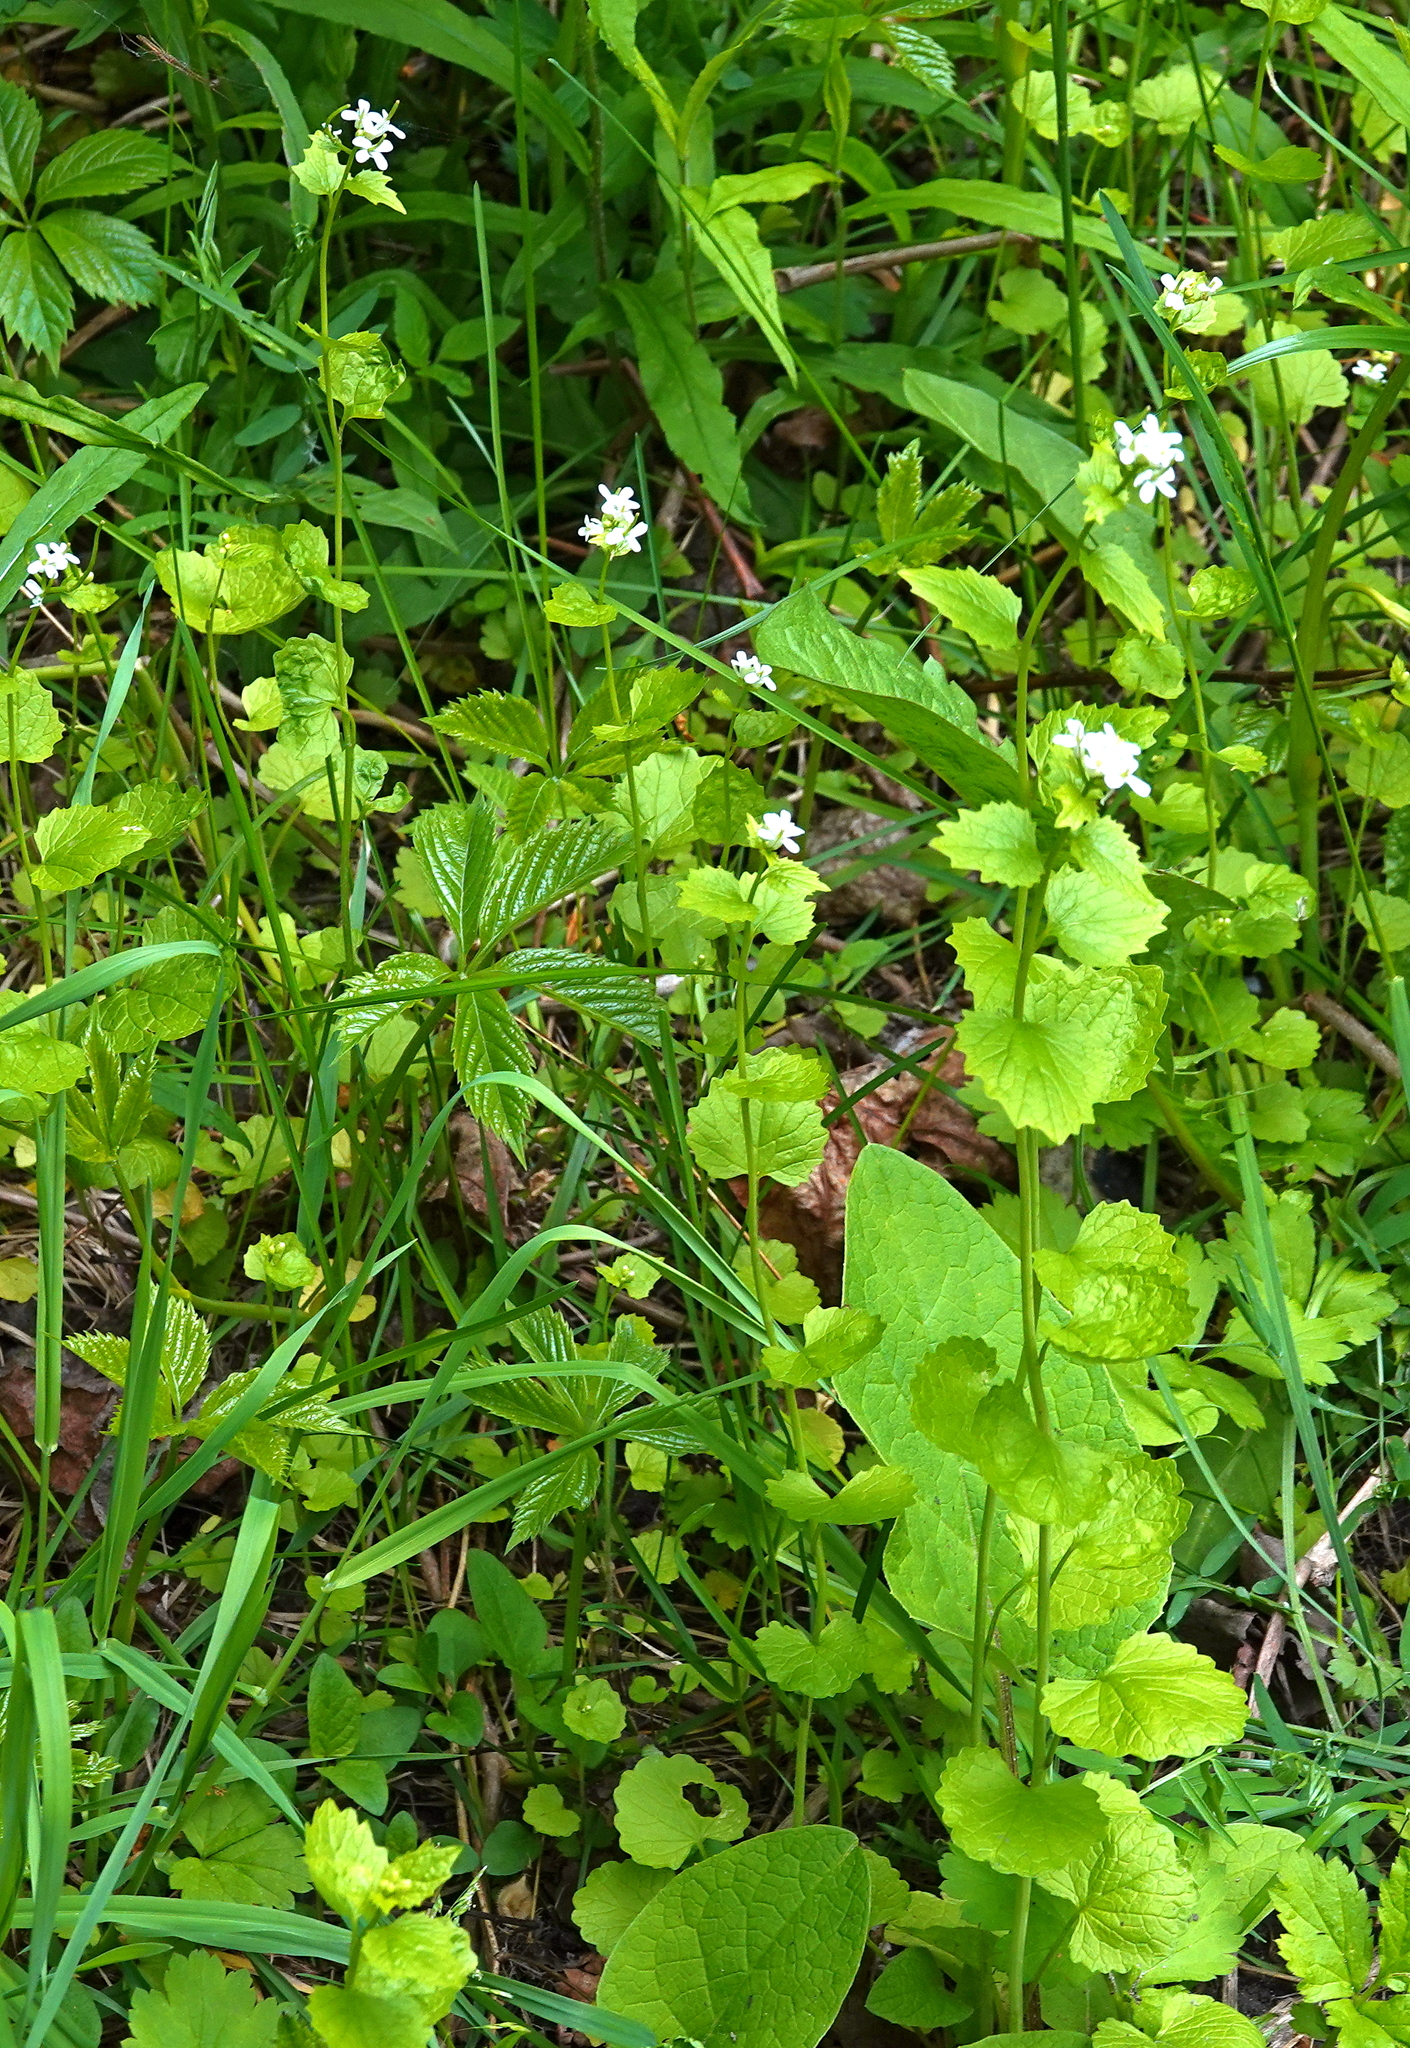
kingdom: Plantae
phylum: Tracheophyta
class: Magnoliopsida
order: Brassicales
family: Brassicaceae
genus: Alliaria
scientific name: Alliaria petiolata
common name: Garlic mustard
